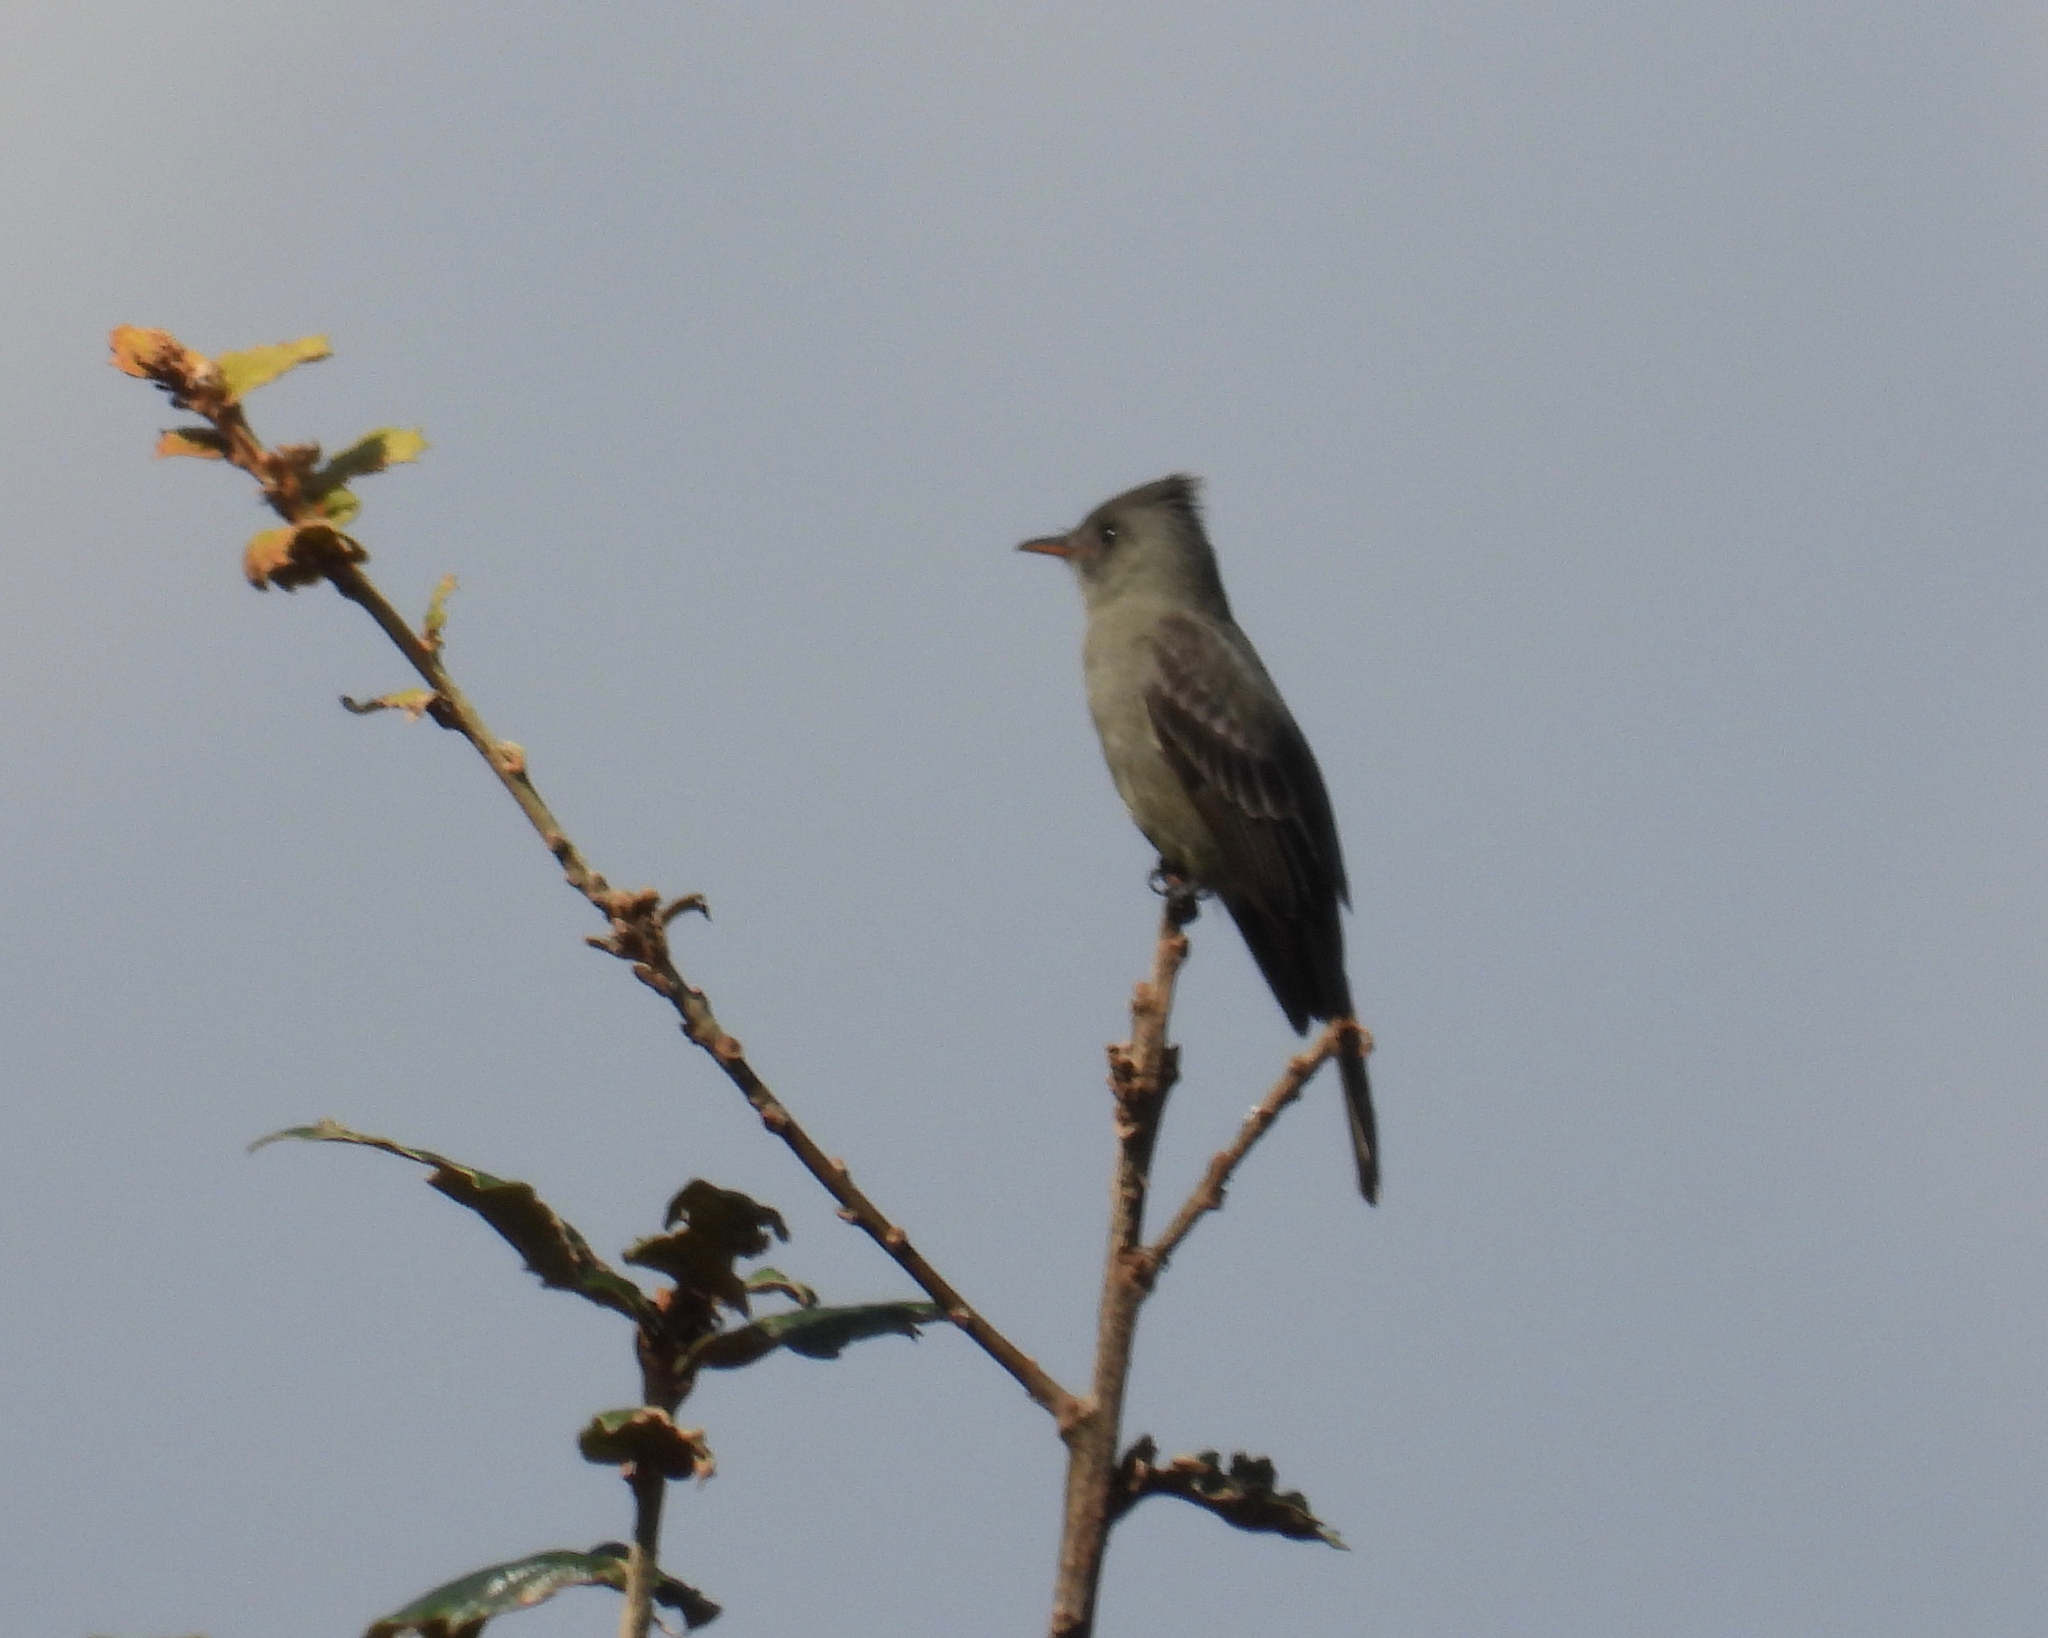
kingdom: Animalia
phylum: Chordata
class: Aves
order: Passeriformes
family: Tyrannidae
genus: Contopus
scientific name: Contopus pertinax
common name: Greater pewee
